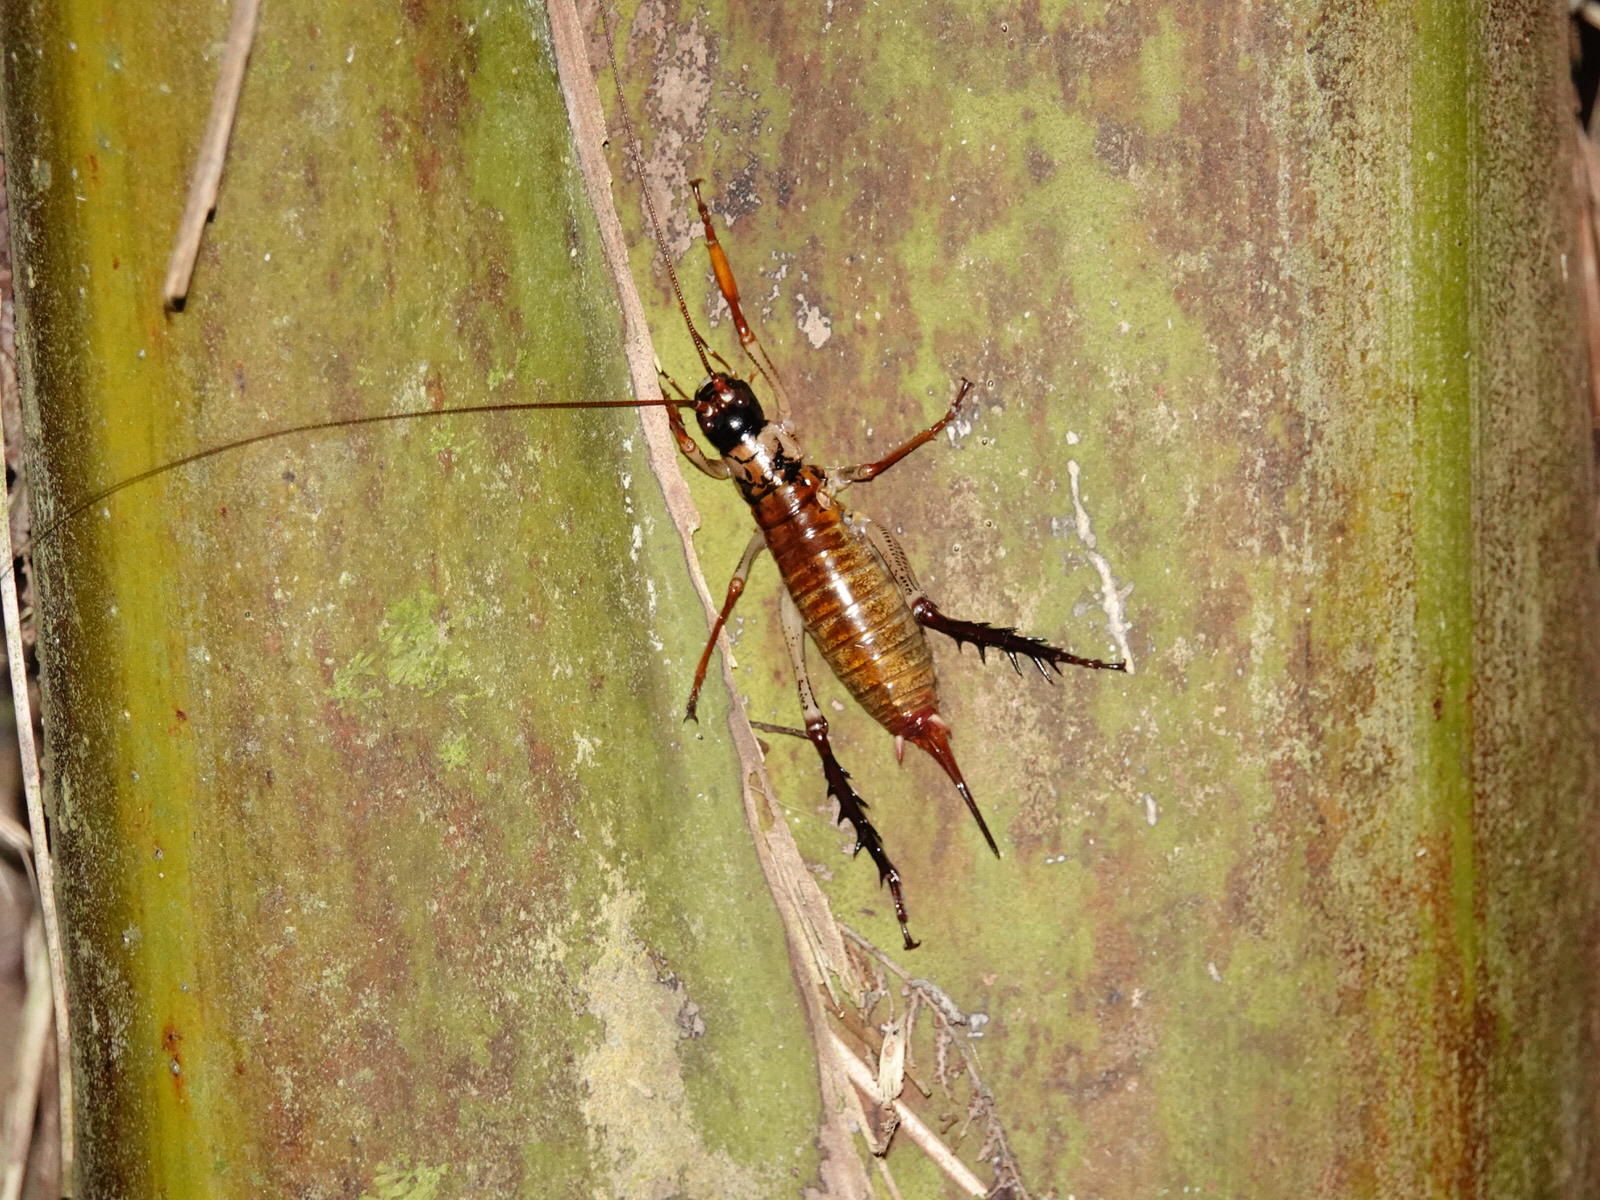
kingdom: Animalia
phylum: Arthropoda
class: Insecta
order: Orthoptera
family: Anostostomatidae
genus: Hemideina
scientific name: Hemideina thoracica
